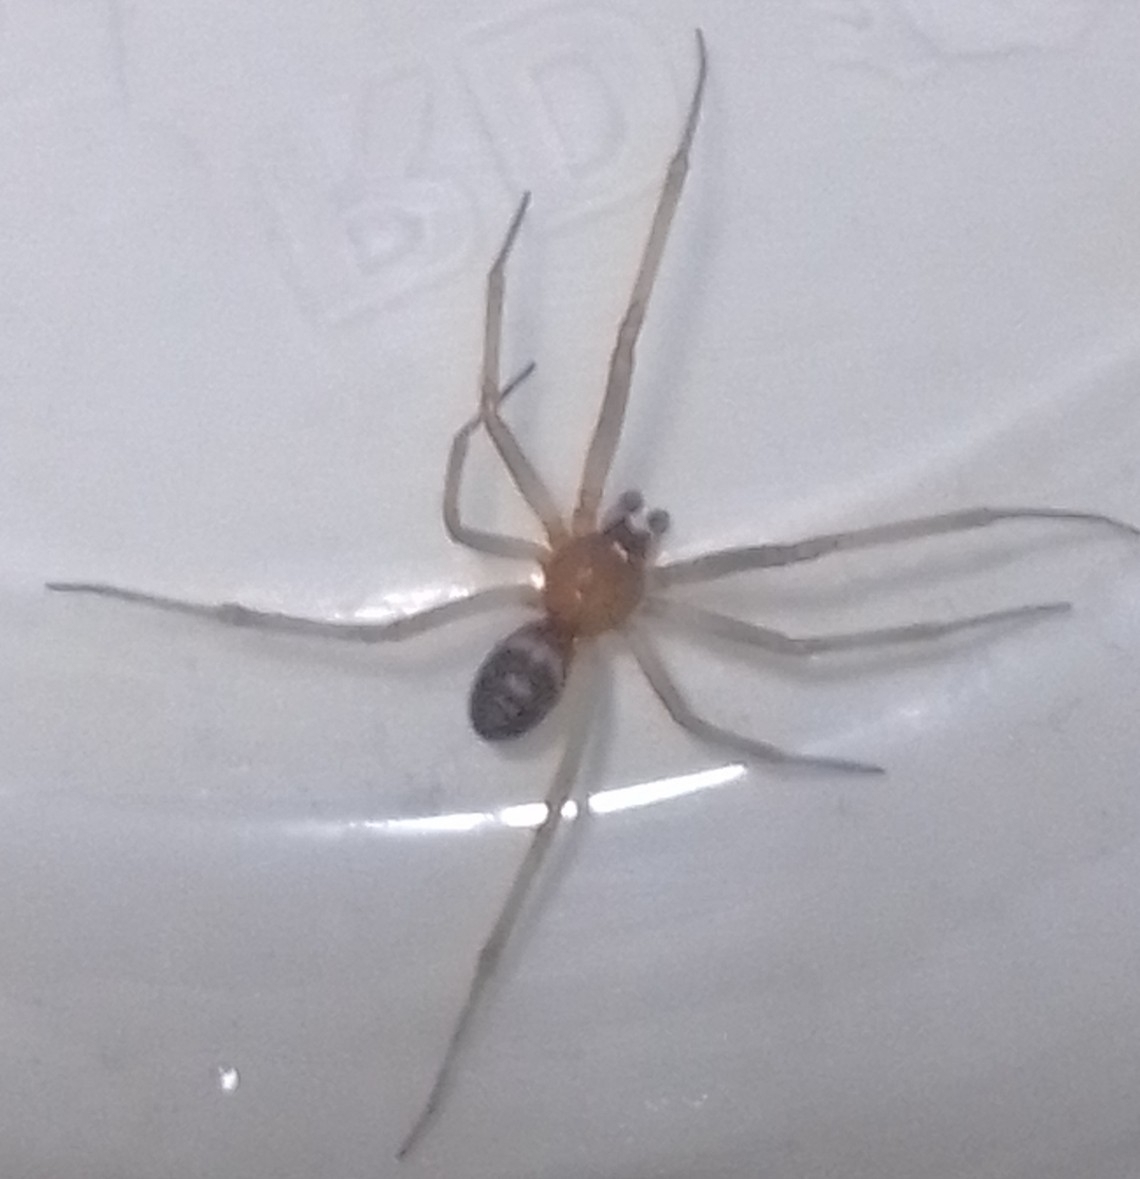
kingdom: Animalia
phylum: Arthropoda
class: Arachnida
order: Araneae
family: Theridiidae
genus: Steatoda
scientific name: Steatoda nobilis
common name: Cobweb weaver
